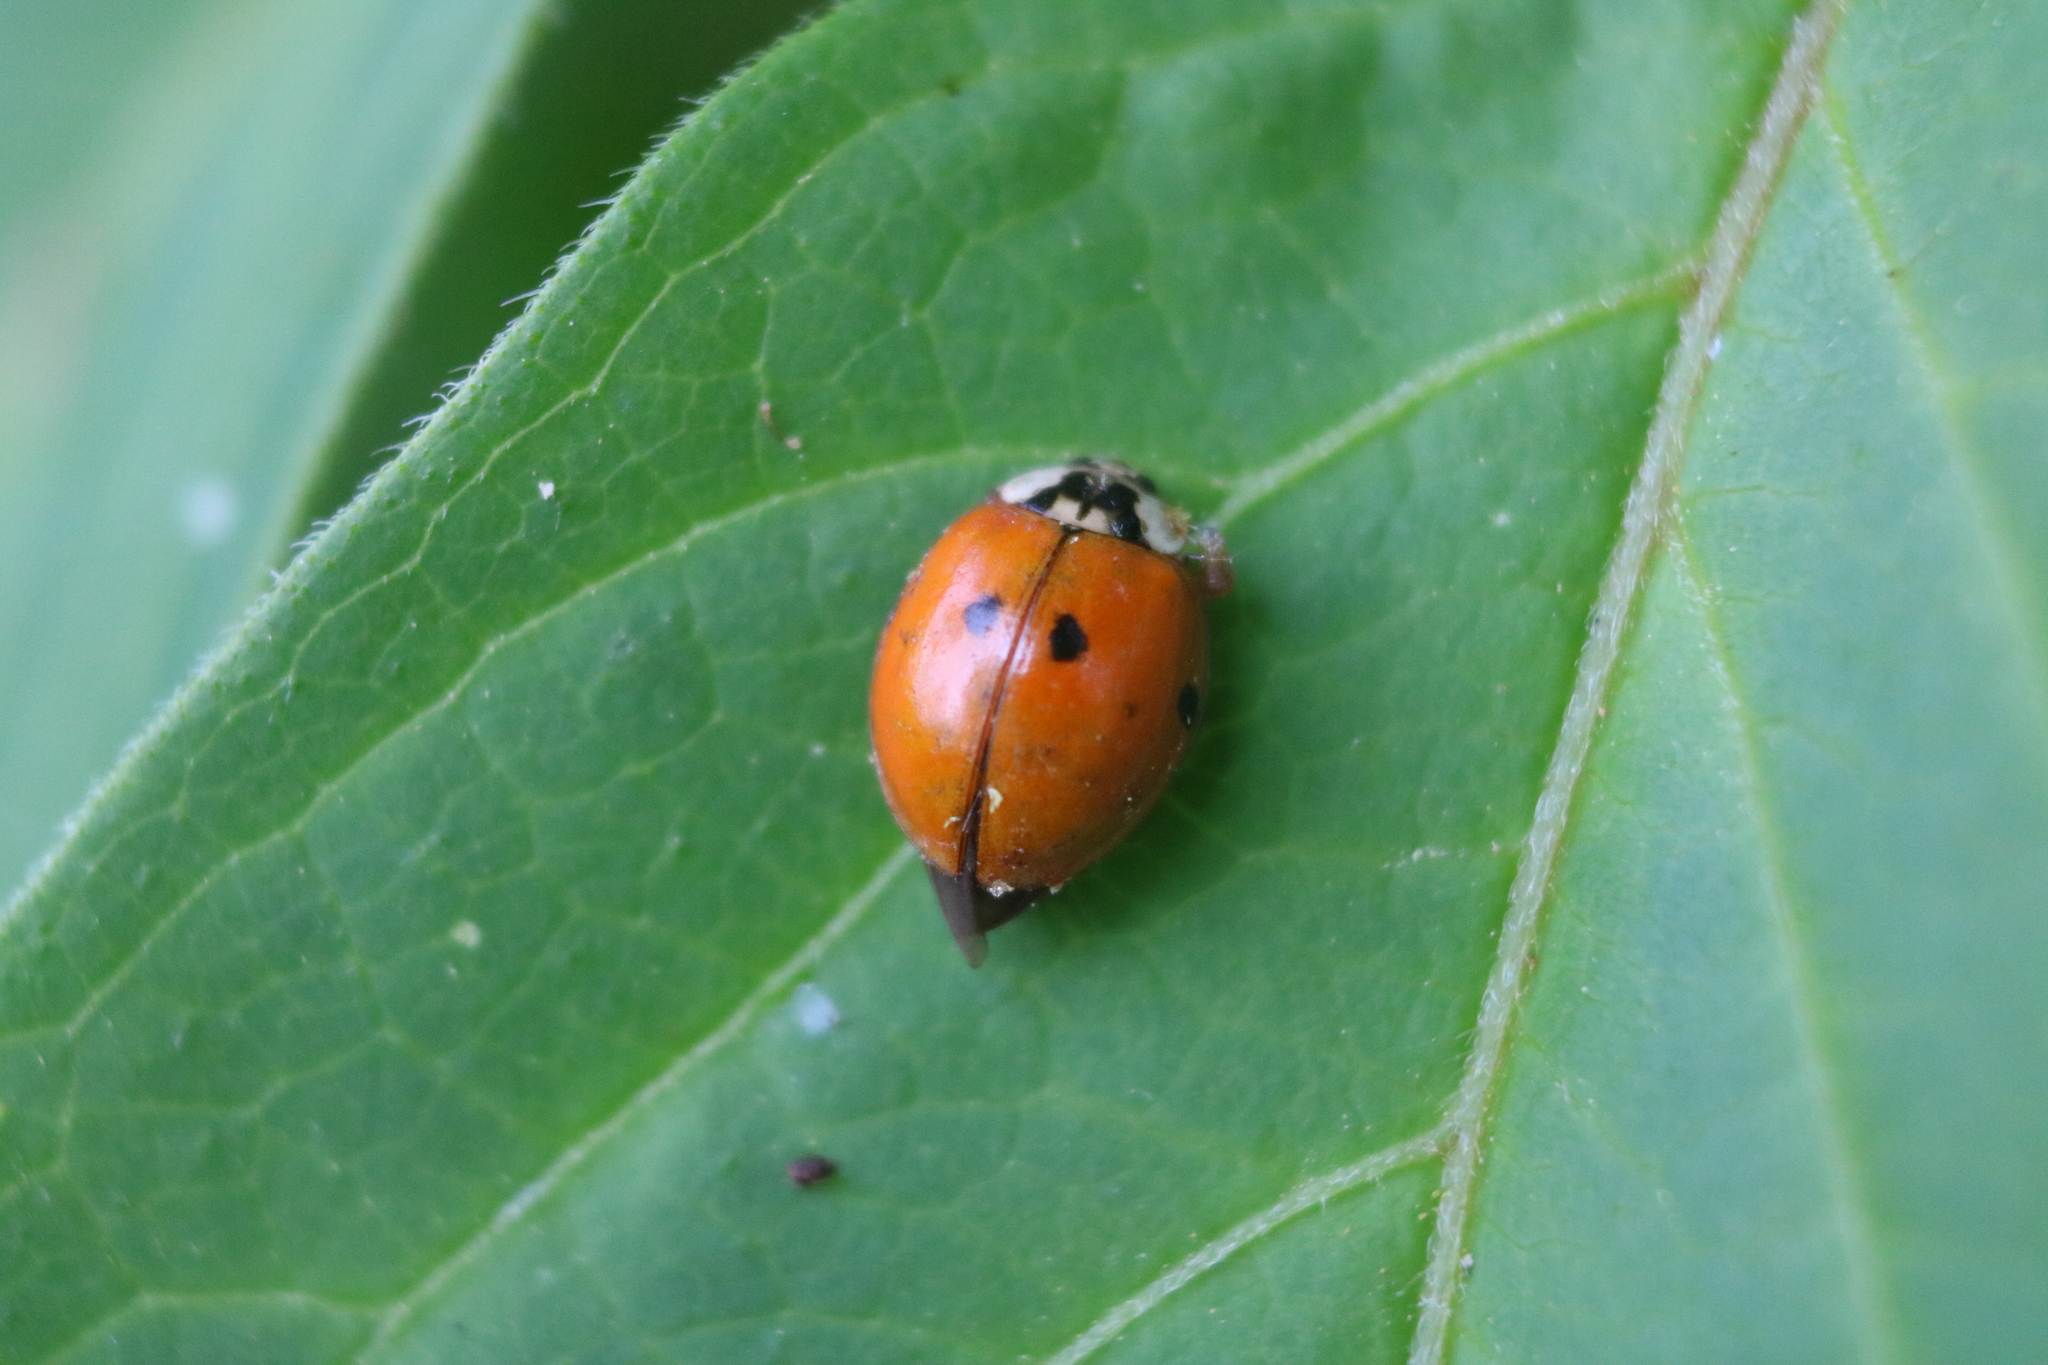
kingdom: Animalia
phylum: Arthropoda
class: Insecta
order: Coleoptera
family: Coccinellidae
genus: Harmonia
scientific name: Harmonia axyridis
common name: Harlequin ladybird
